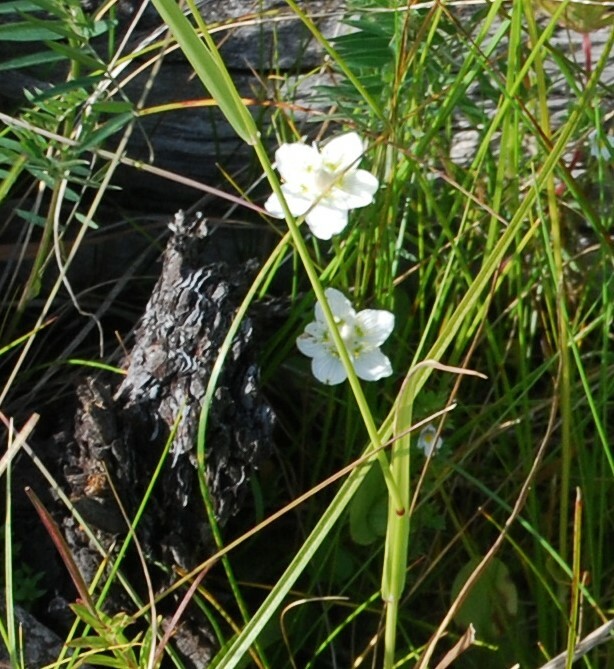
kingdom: Plantae
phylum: Tracheophyta
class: Magnoliopsida
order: Celastrales
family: Parnassiaceae
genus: Parnassia
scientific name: Parnassia palustris
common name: Grass-of-parnassus
